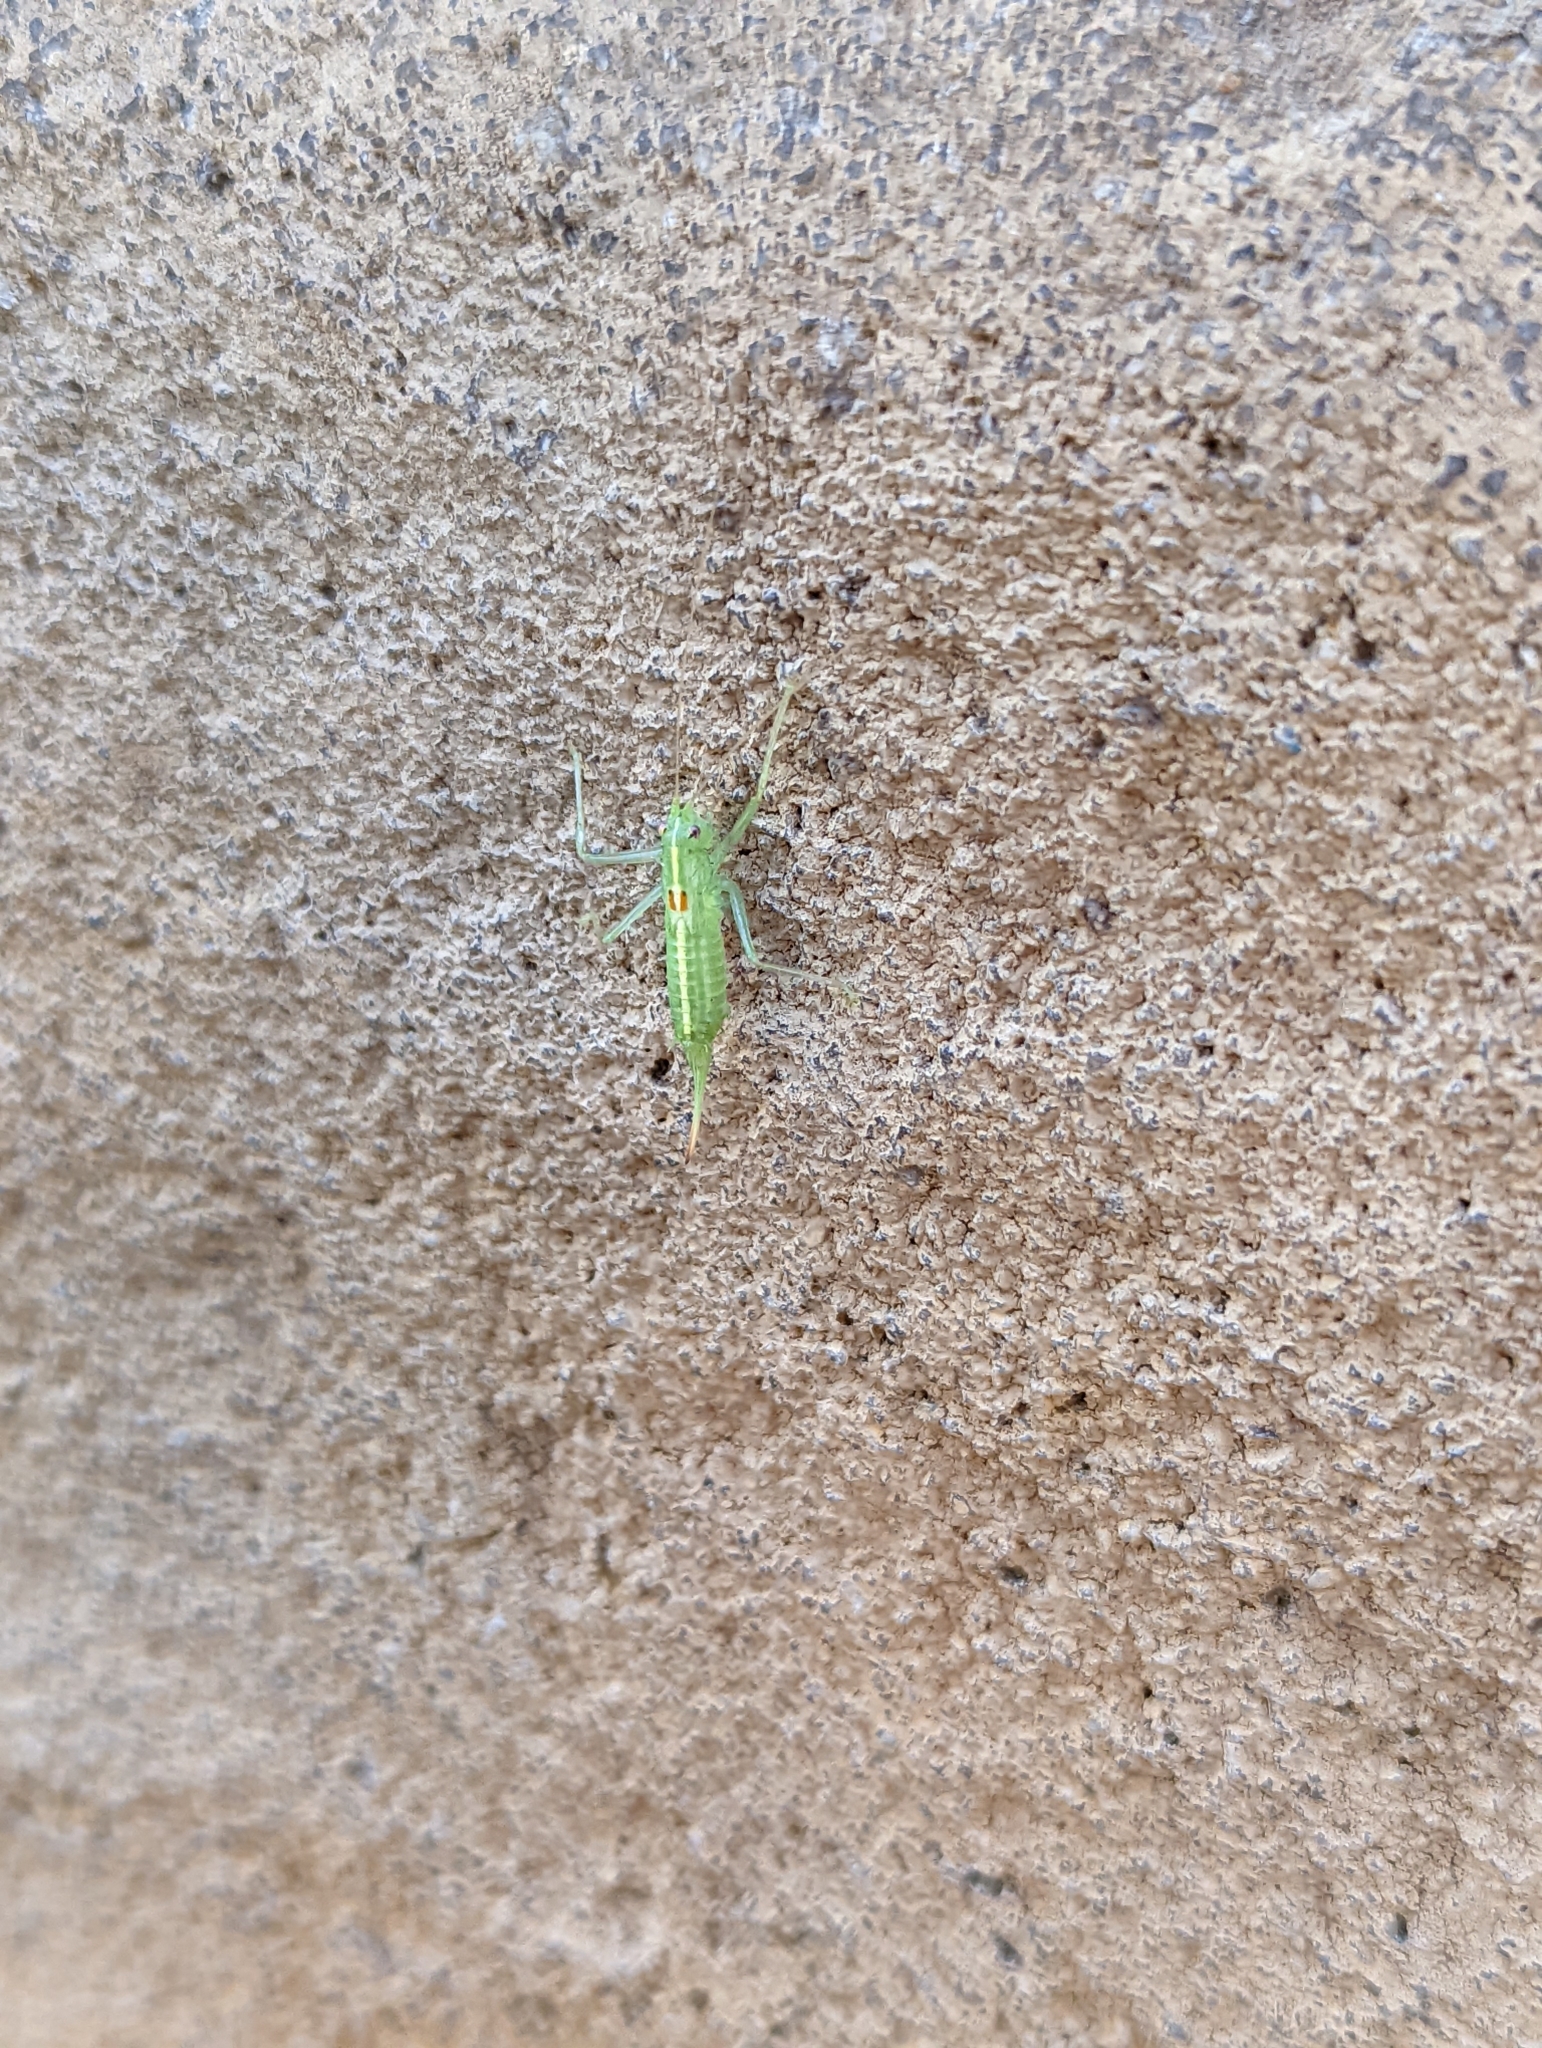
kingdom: Animalia
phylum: Arthropoda
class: Insecta
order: Orthoptera
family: Tettigoniidae
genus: Meconema
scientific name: Meconema meridionale
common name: Southern oak bush-cricket
